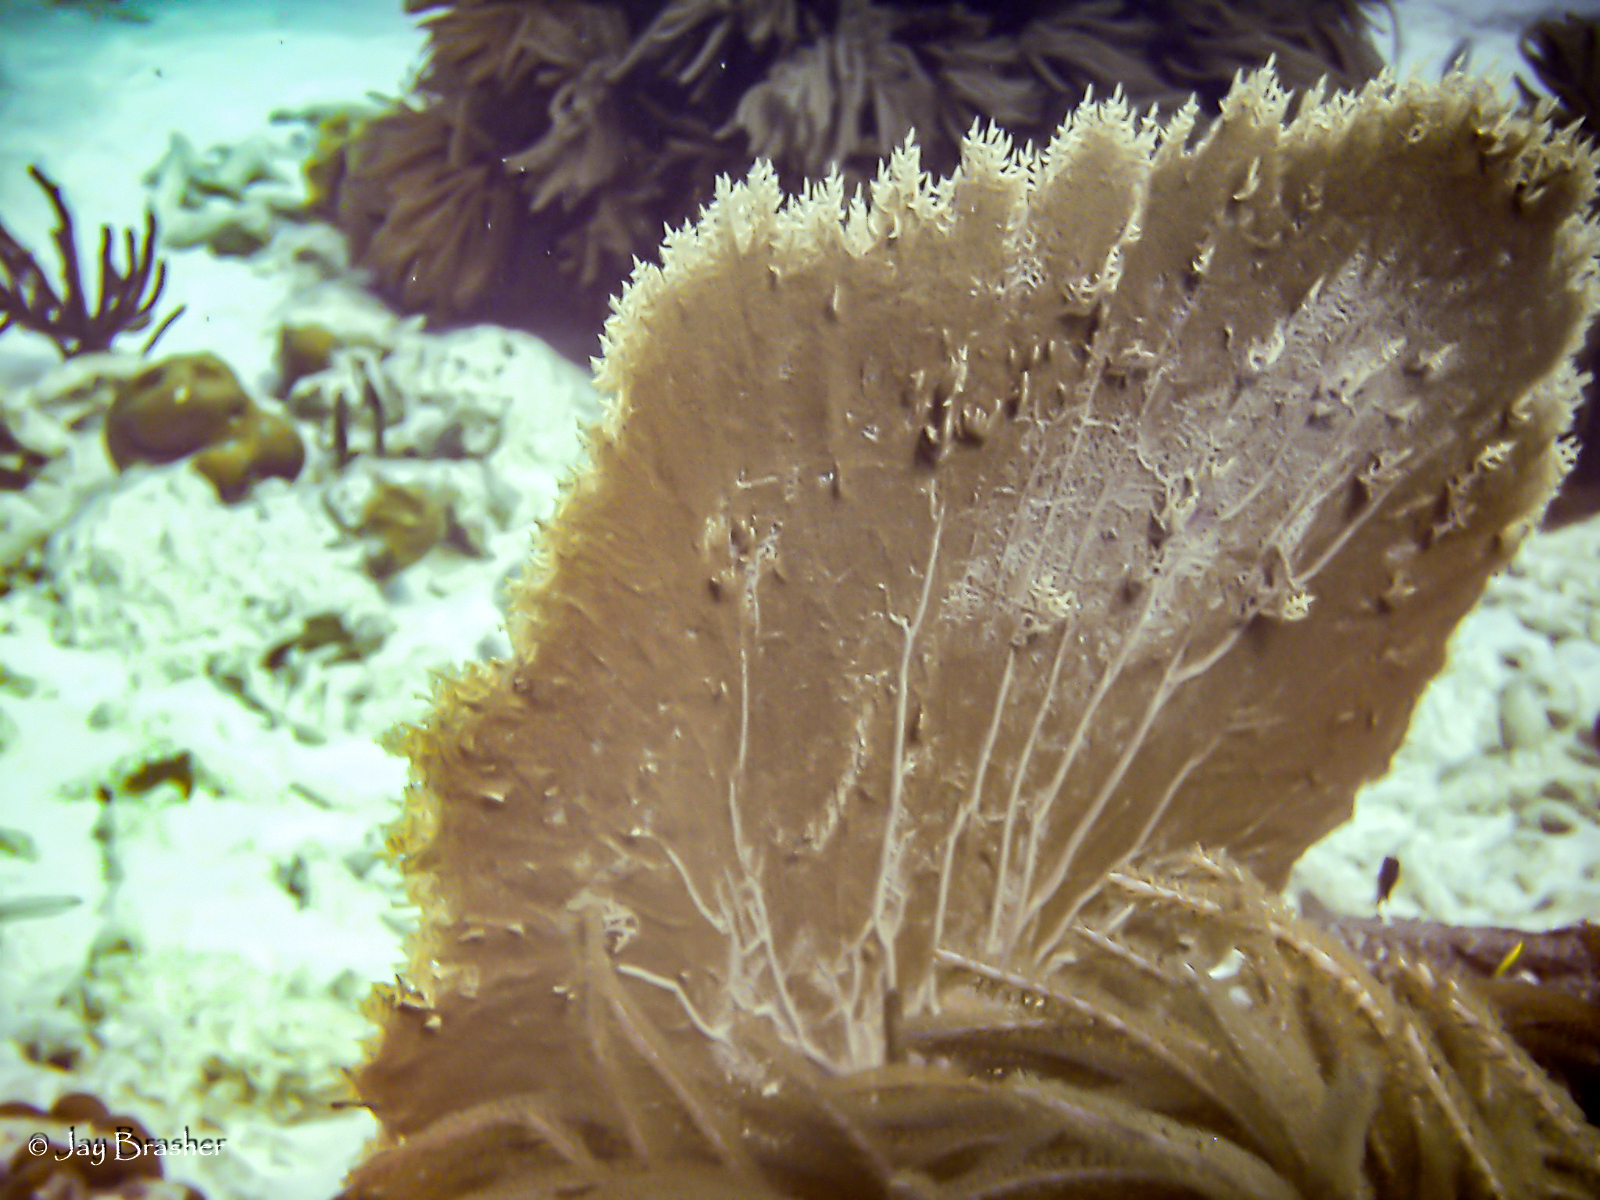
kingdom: Animalia
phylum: Cnidaria
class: Anthozoa
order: Malacalcyonacea
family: Gorgoniidae
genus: Gorgonia
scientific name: Gorgonia ventalina
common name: Common sea fan
